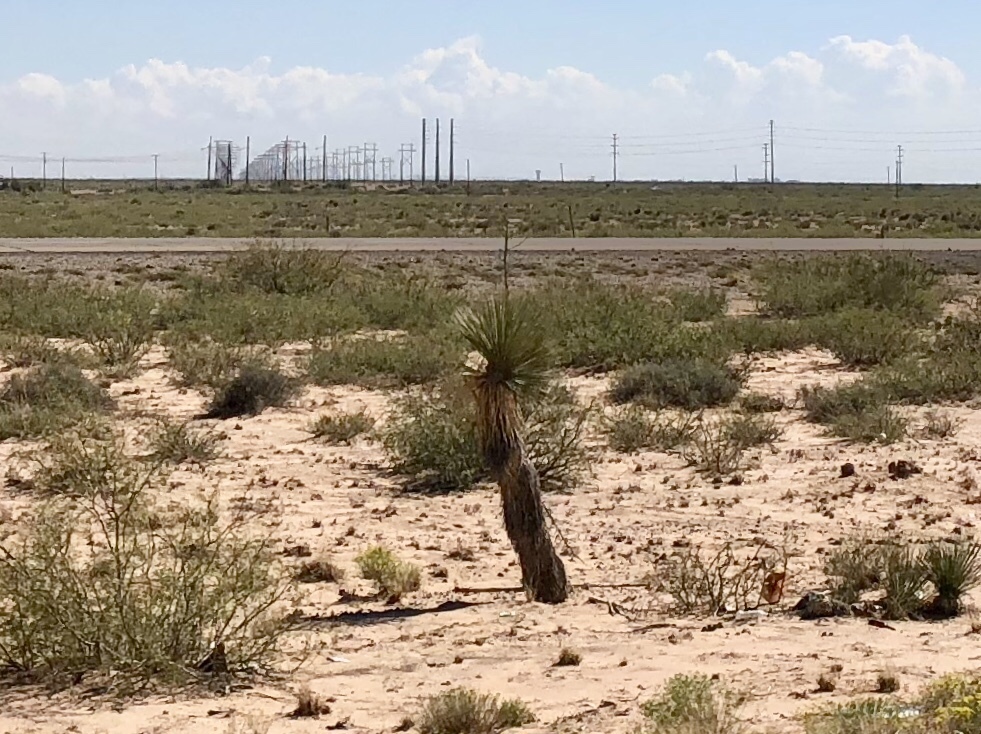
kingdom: Plantae
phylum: Tracheophyta
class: Liliopsida
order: Asparagales
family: Asparagaceae
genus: Yucca
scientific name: Yucca elata
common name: Palmella
